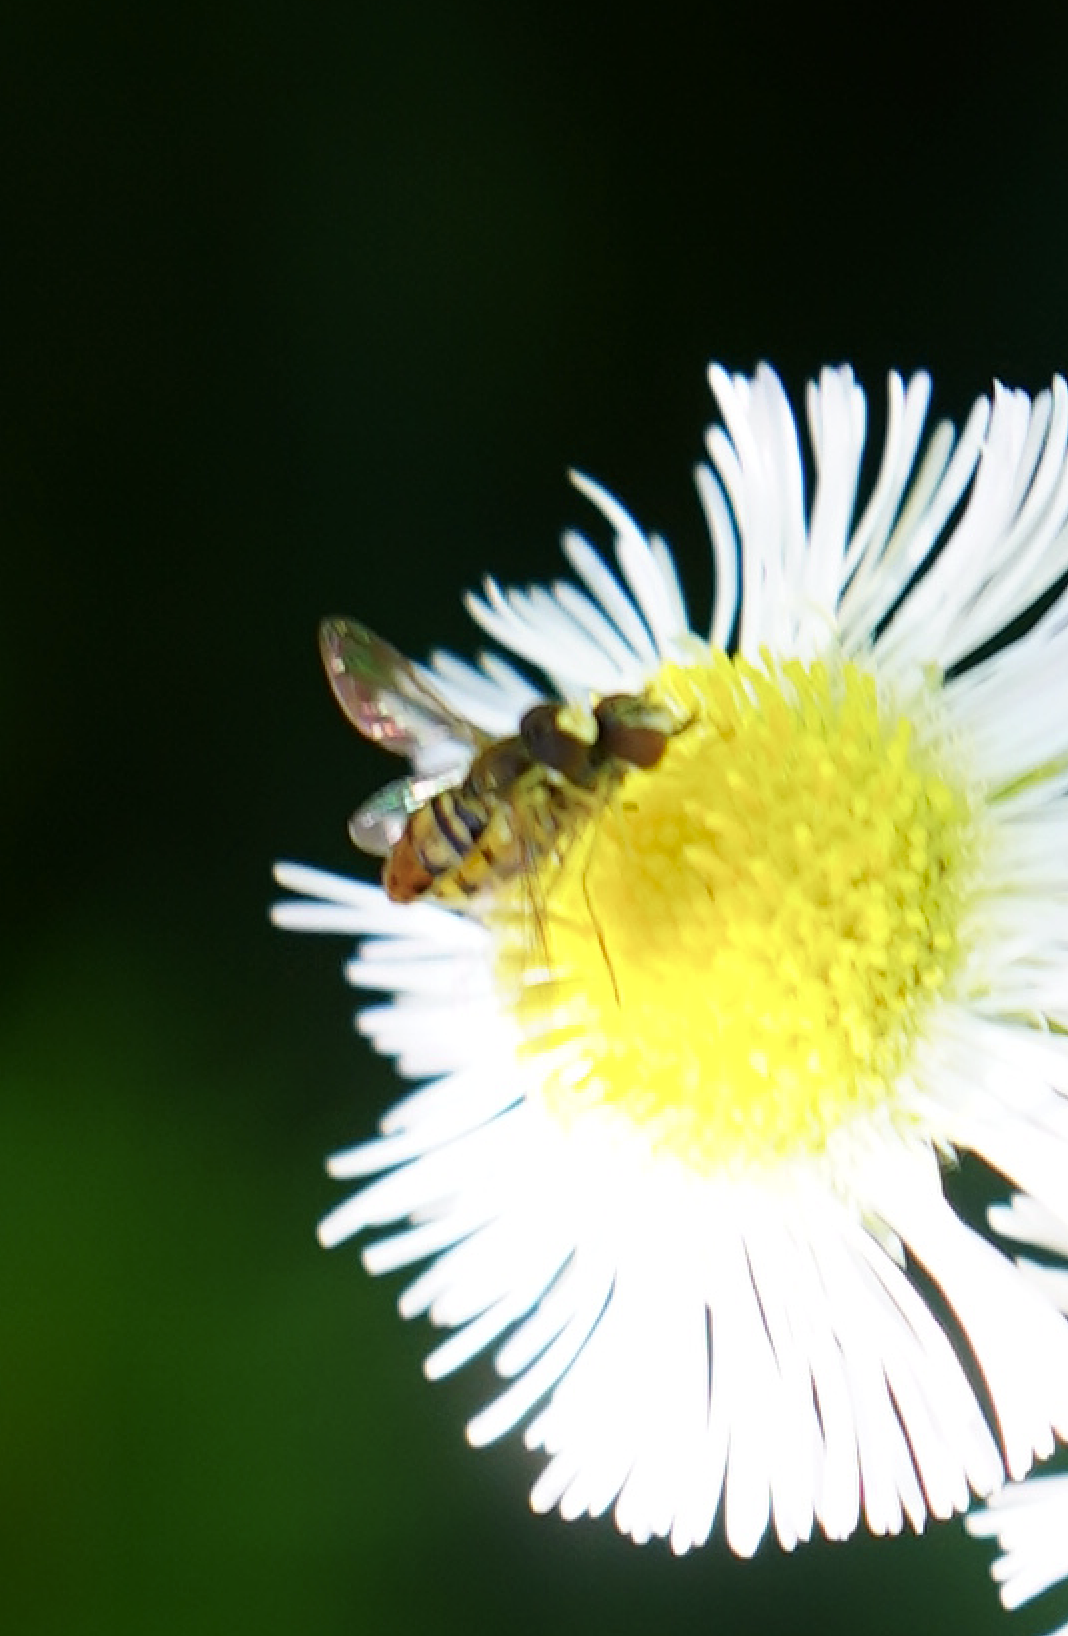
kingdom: Animalia
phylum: Arthropoda
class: Insecta
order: Diptera
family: Syrphidae
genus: Toxomerus
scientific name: Toxomerus marginatus
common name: Syrphid fly
